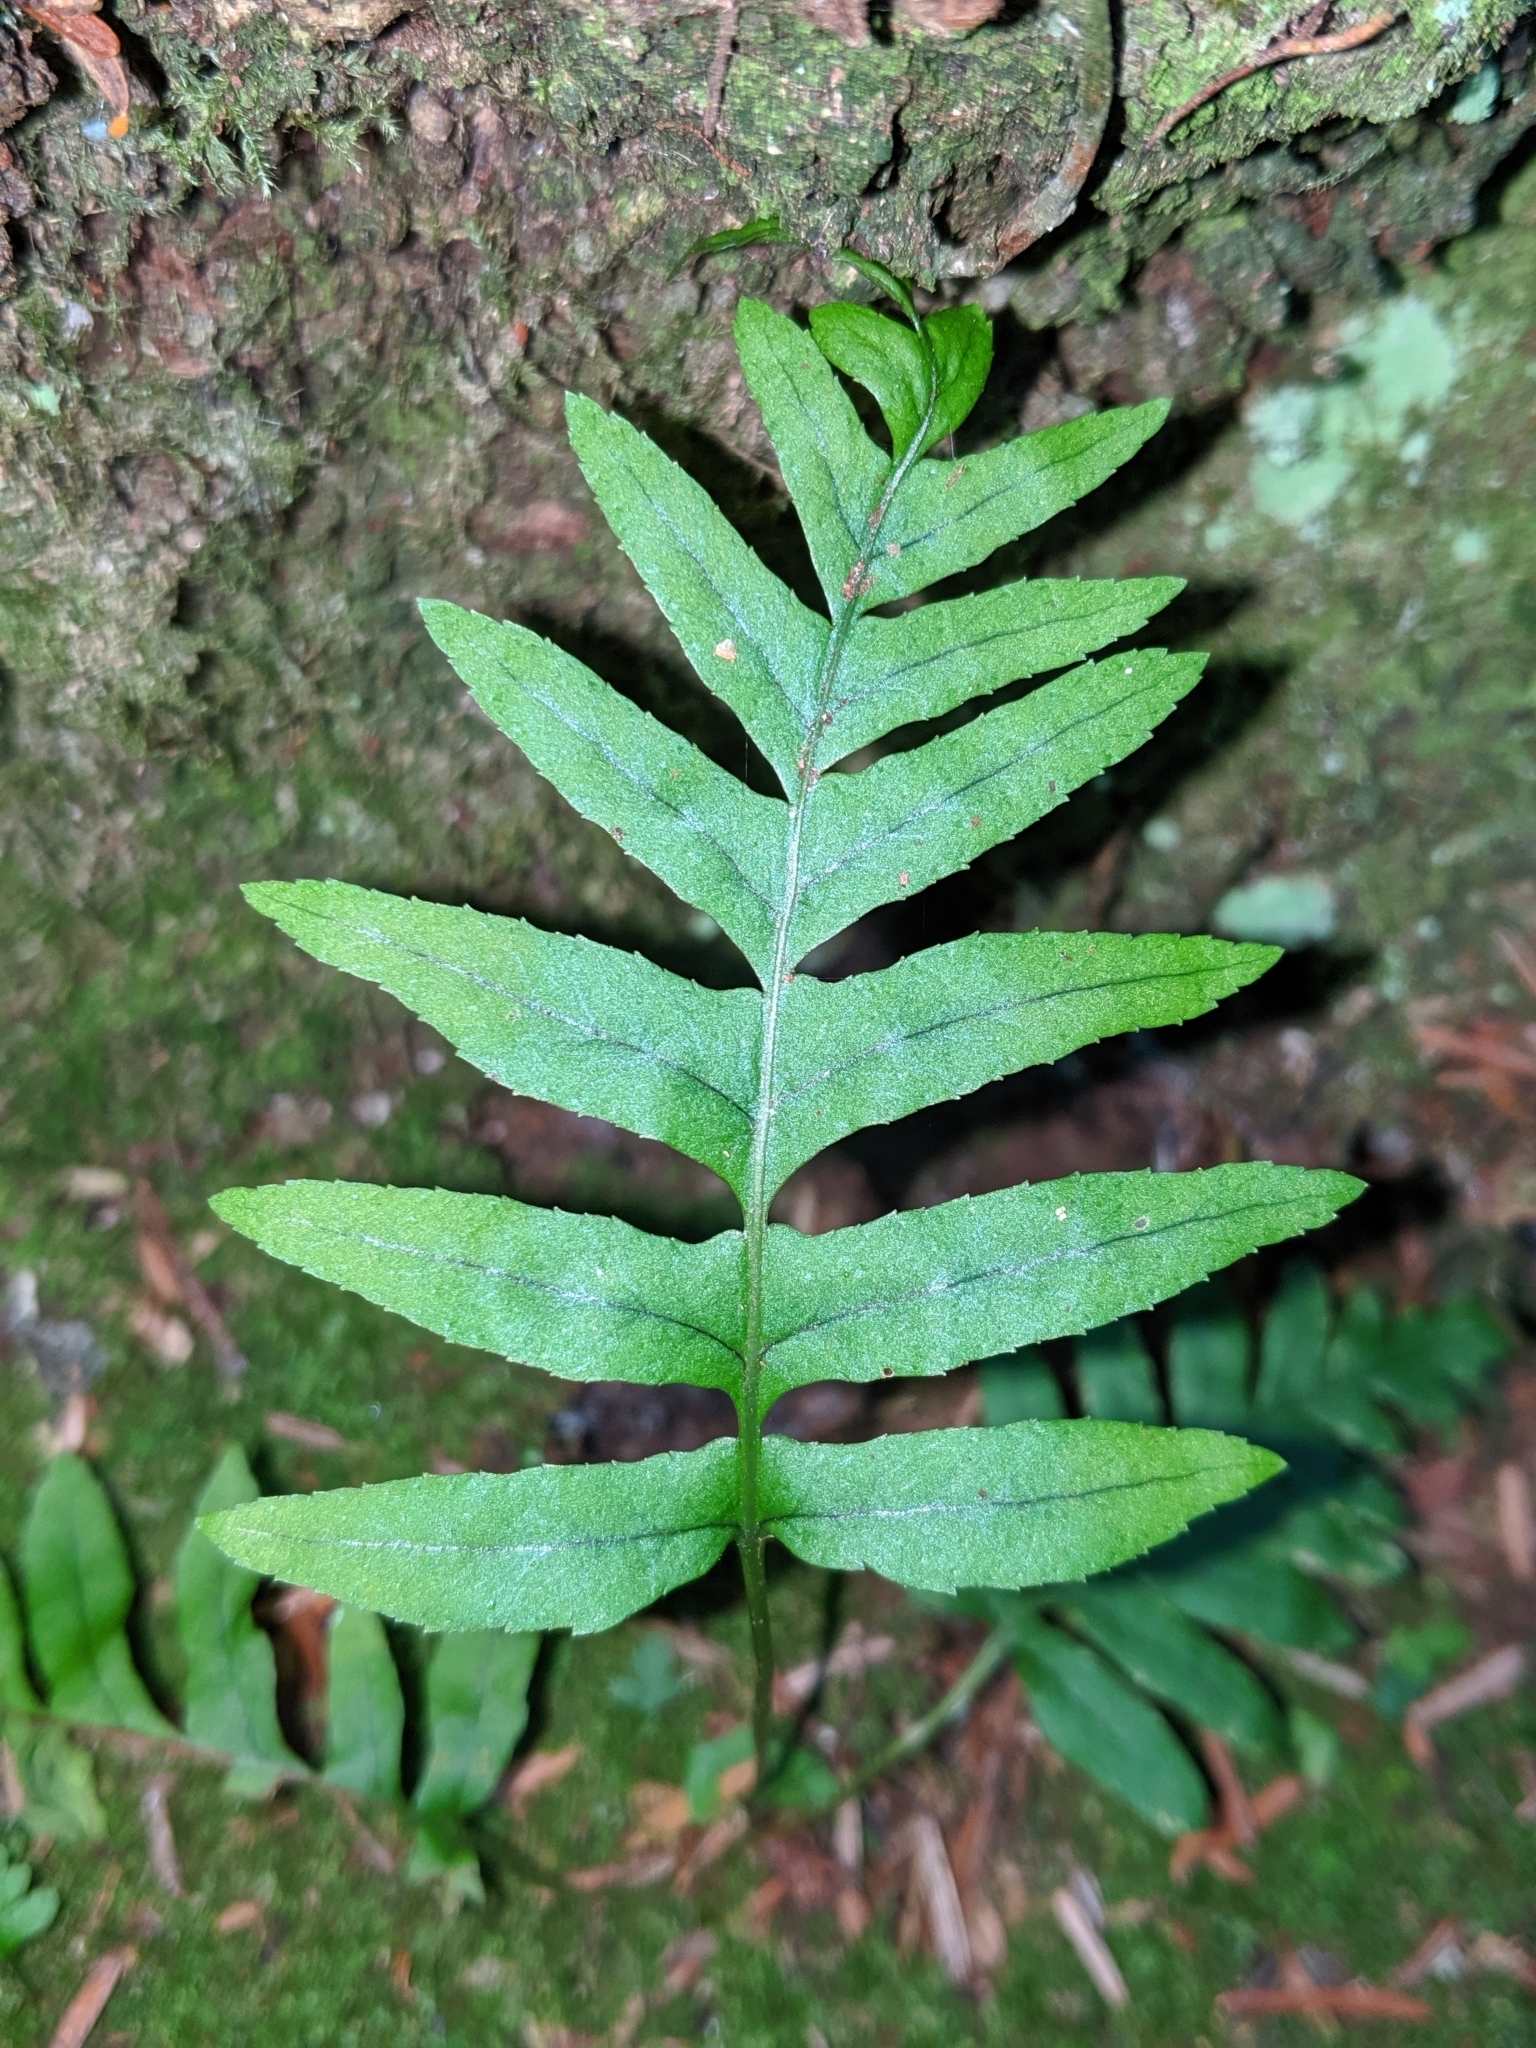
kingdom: Plantae
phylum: Tracheophyta
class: Polypodiopsida
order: Polypodiales
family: Polypodiaceae
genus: Polypodium
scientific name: Polypodium glycyrrhiza
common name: Licorice fern
